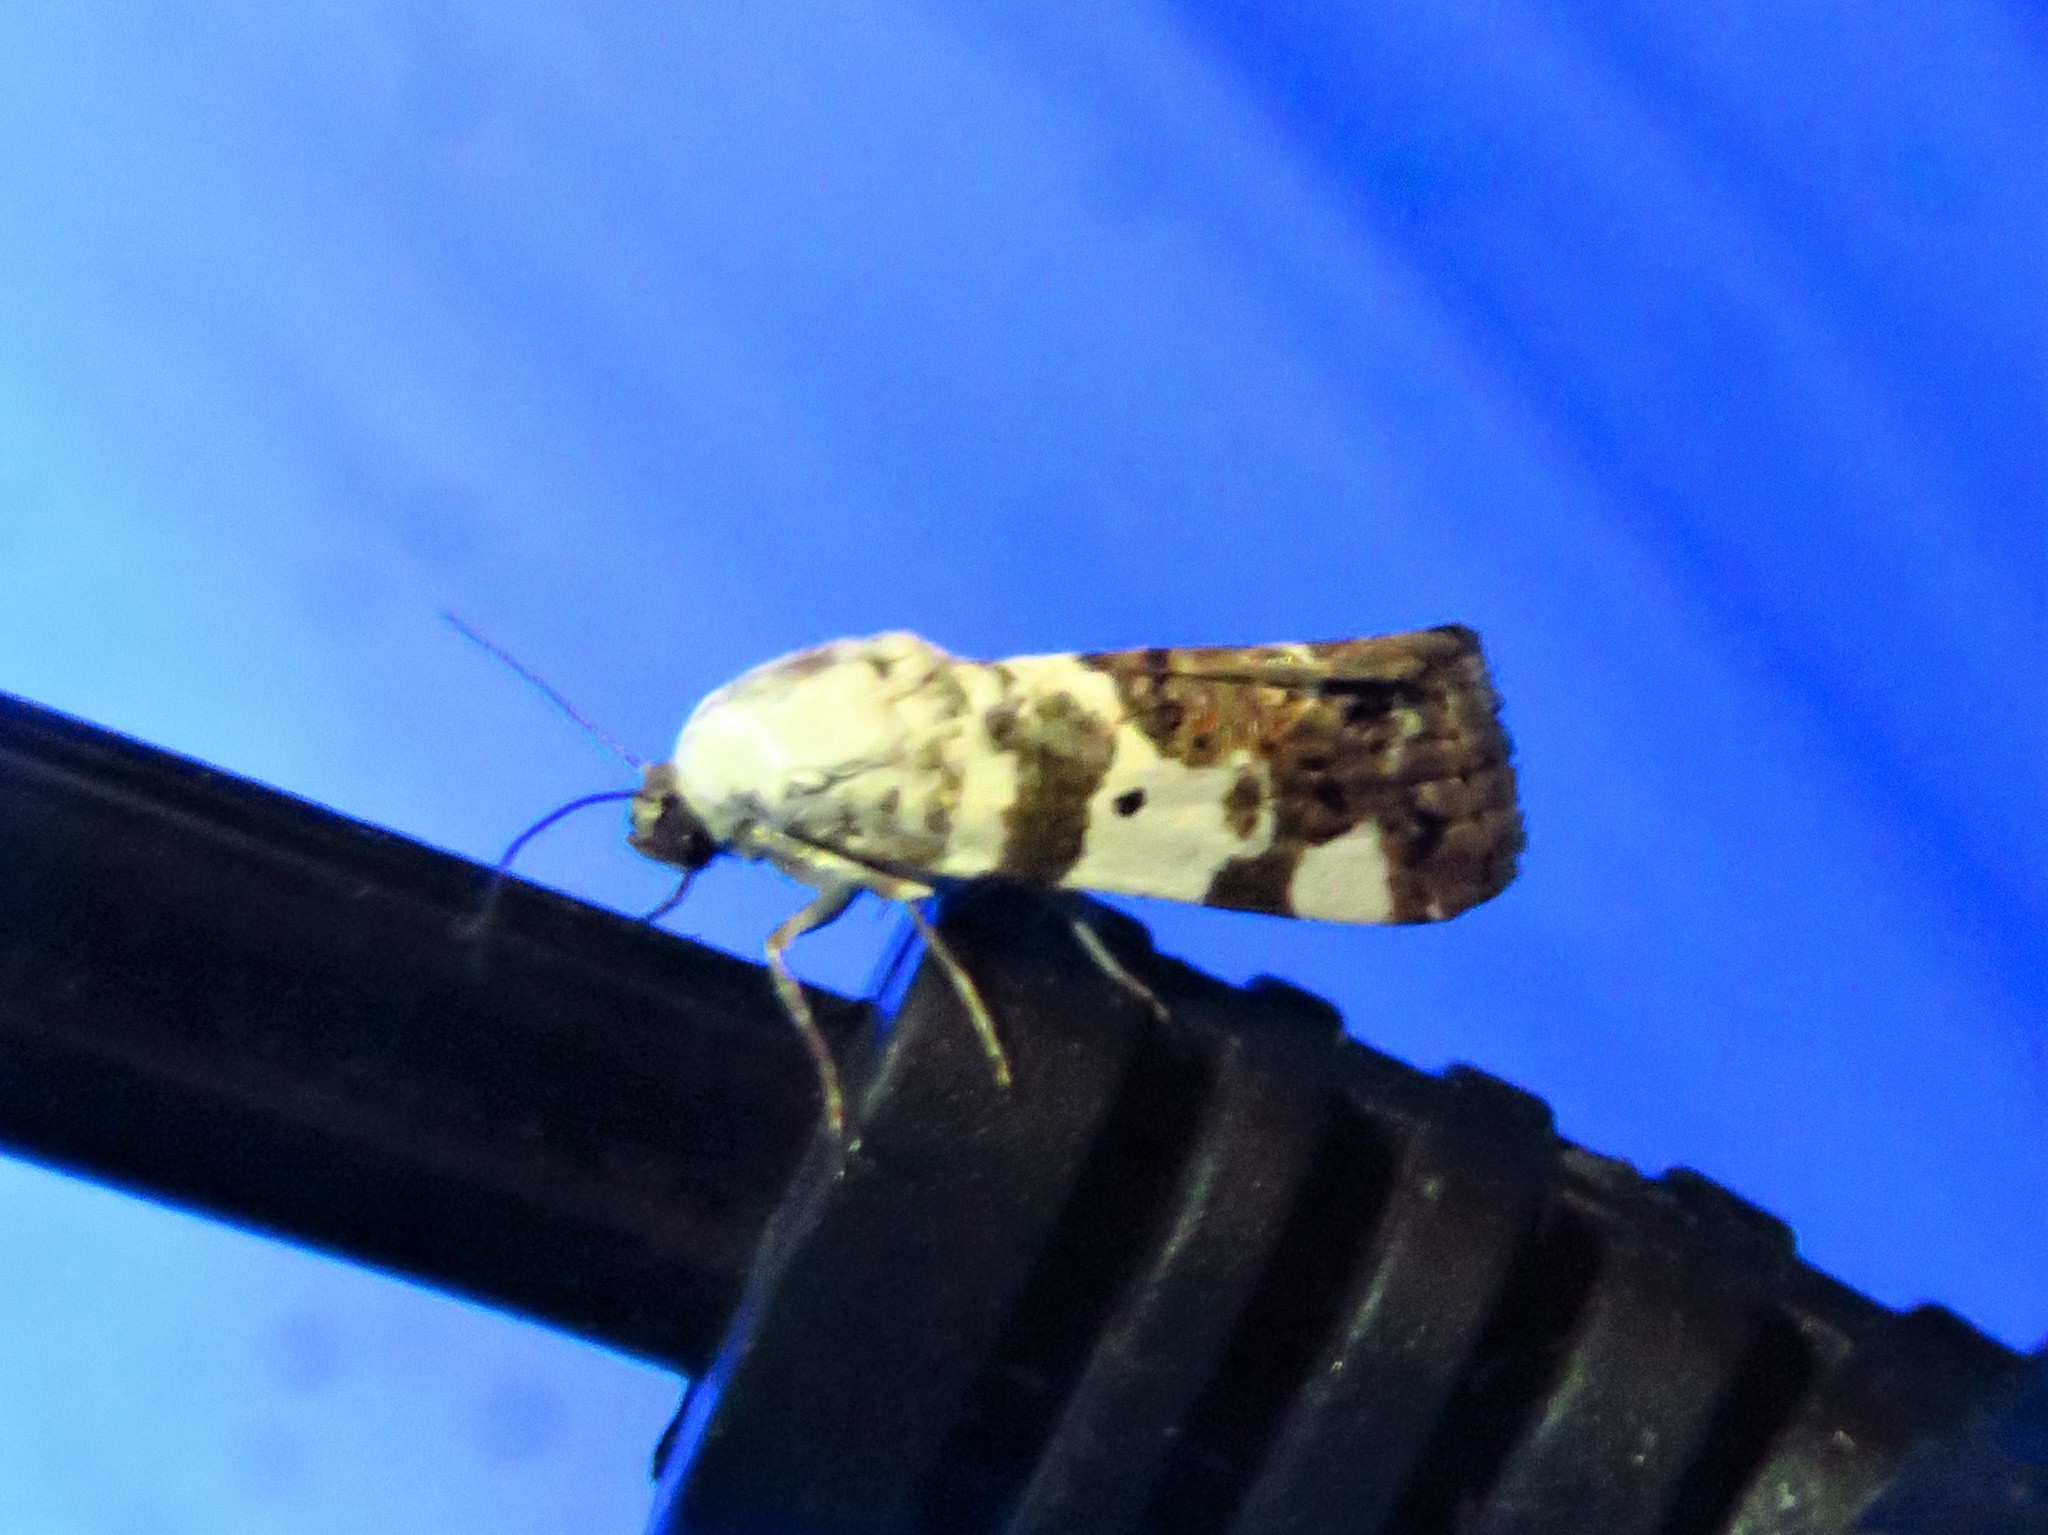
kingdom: Animalia
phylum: Arthropoda
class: Insecta
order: Lepidoptera
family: Noctuidae
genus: Acontia
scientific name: Acontia aprica
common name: Nun
